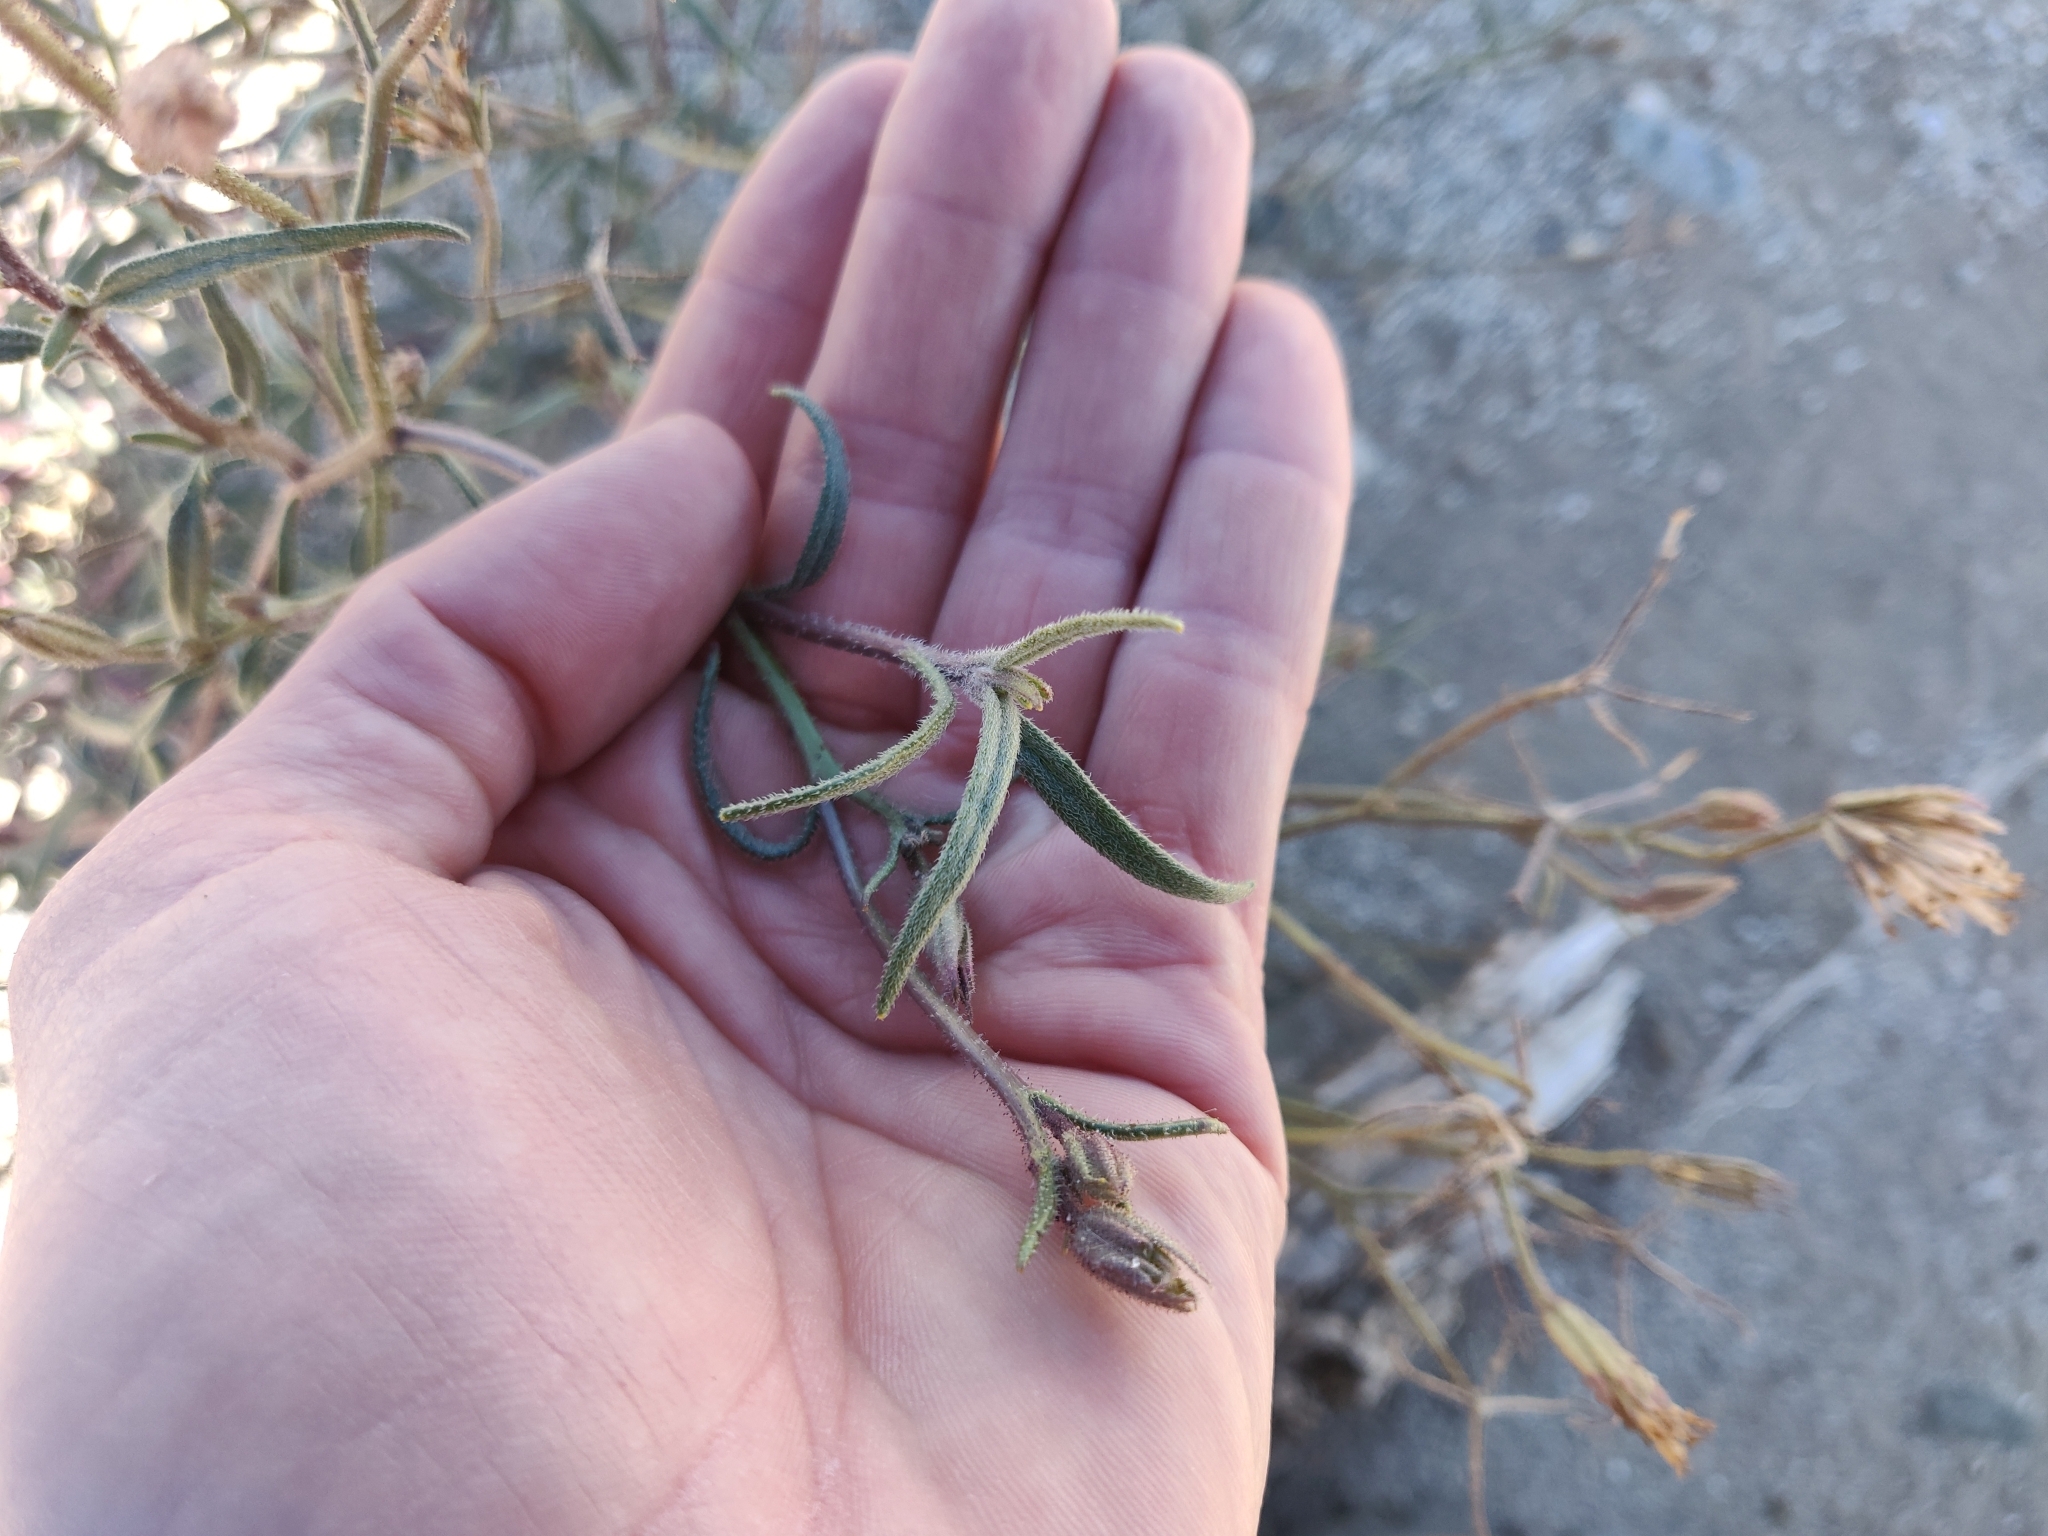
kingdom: Plantae
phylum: Tracheophyta
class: Magnoliopsida
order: Asterales
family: Asteraceae
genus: Palafoxia
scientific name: Palafoxia arida
